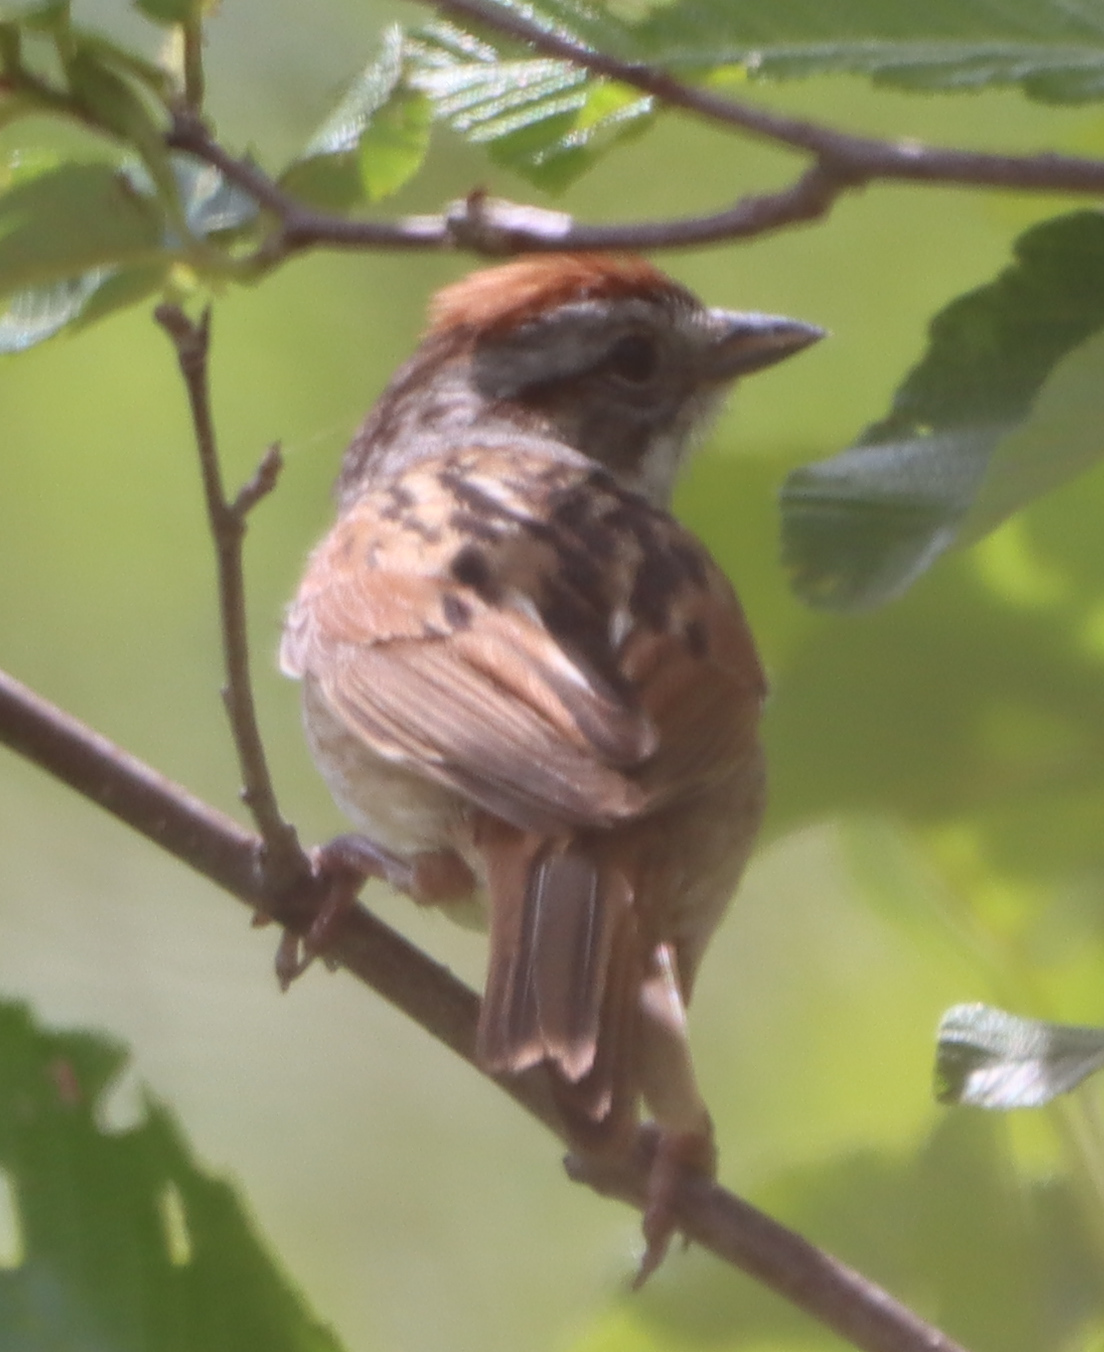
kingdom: Animalia
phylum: Chordata
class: Aves
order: Passeriformes
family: Passerellidae
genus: Melospiza
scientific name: Melospiza georgiana
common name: Swamp sparrow
